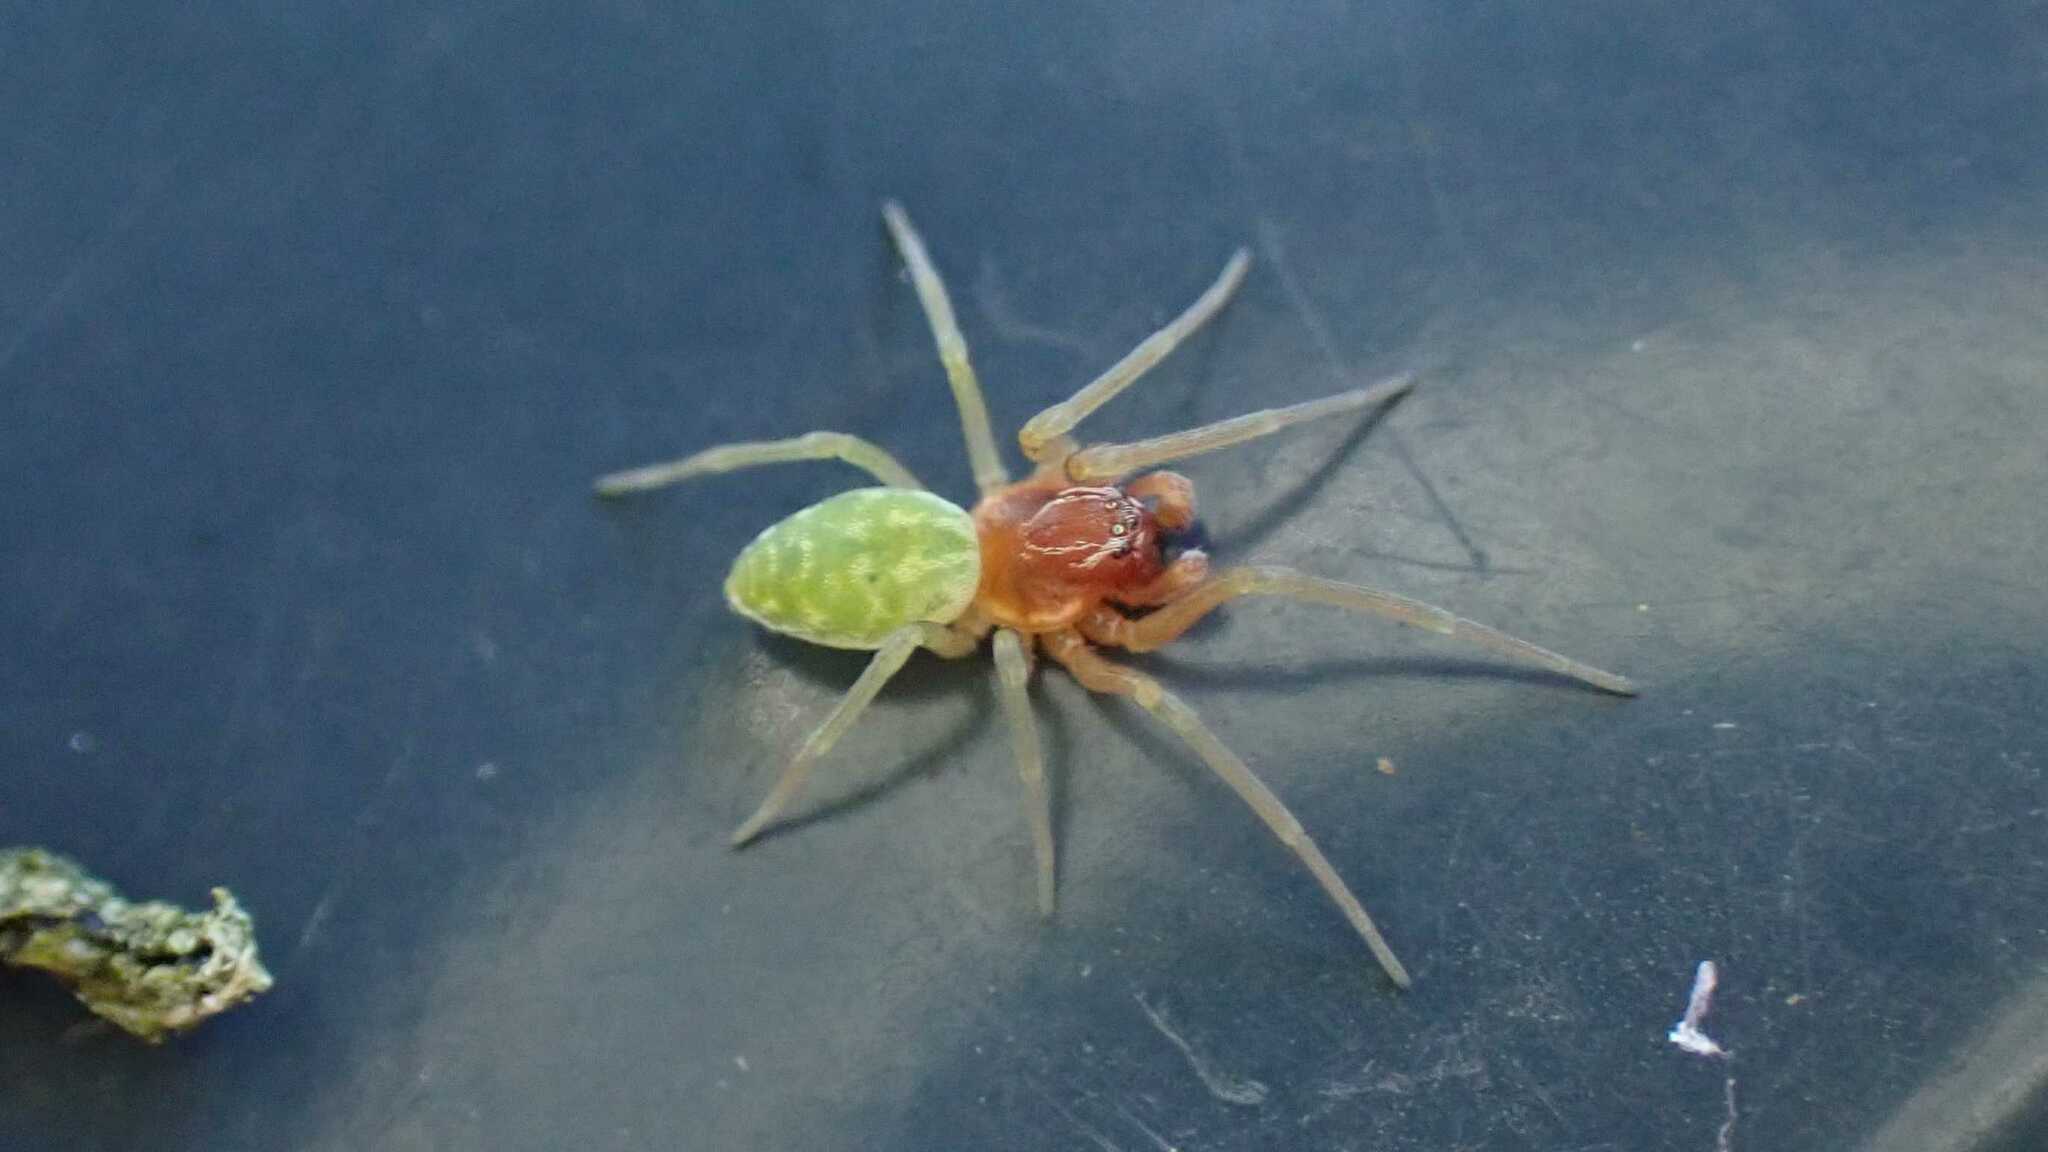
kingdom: Animalia
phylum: Arthropoda
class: Arachnida
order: Araneae
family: Dictynidae
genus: Nigma
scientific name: Nigma walckenaeri
